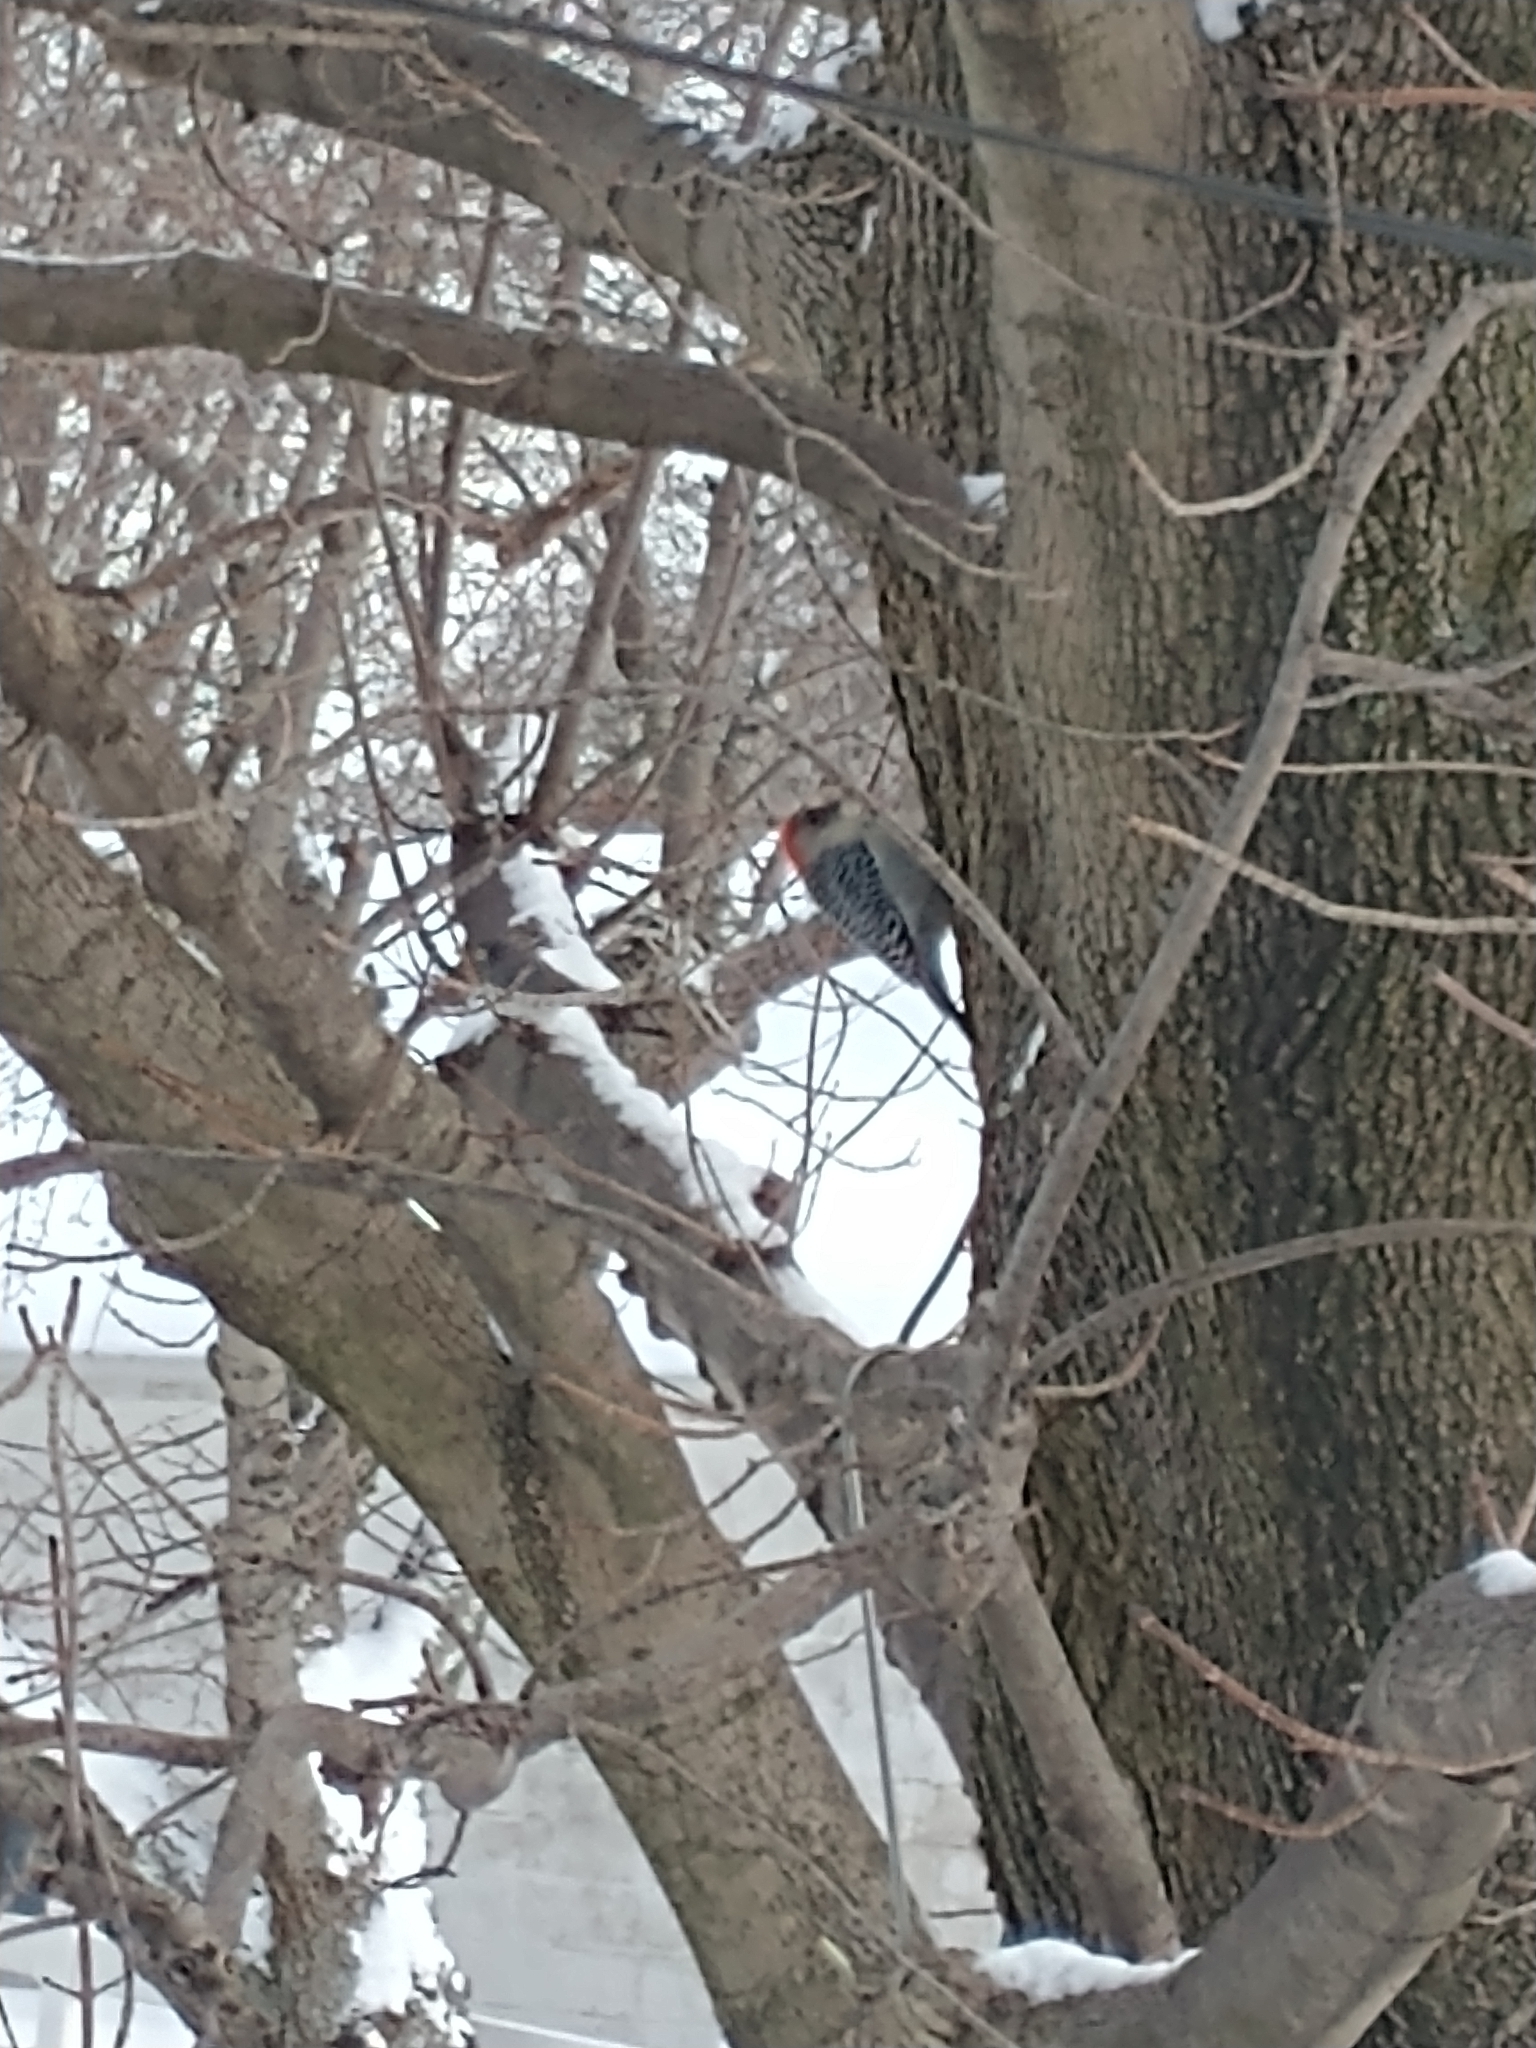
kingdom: Animalia
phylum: Chordata
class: Aves
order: Piciformes
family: Picidae
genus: Melanerpes
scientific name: Melanerpes carolinus
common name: Red-bellied woodpecker
